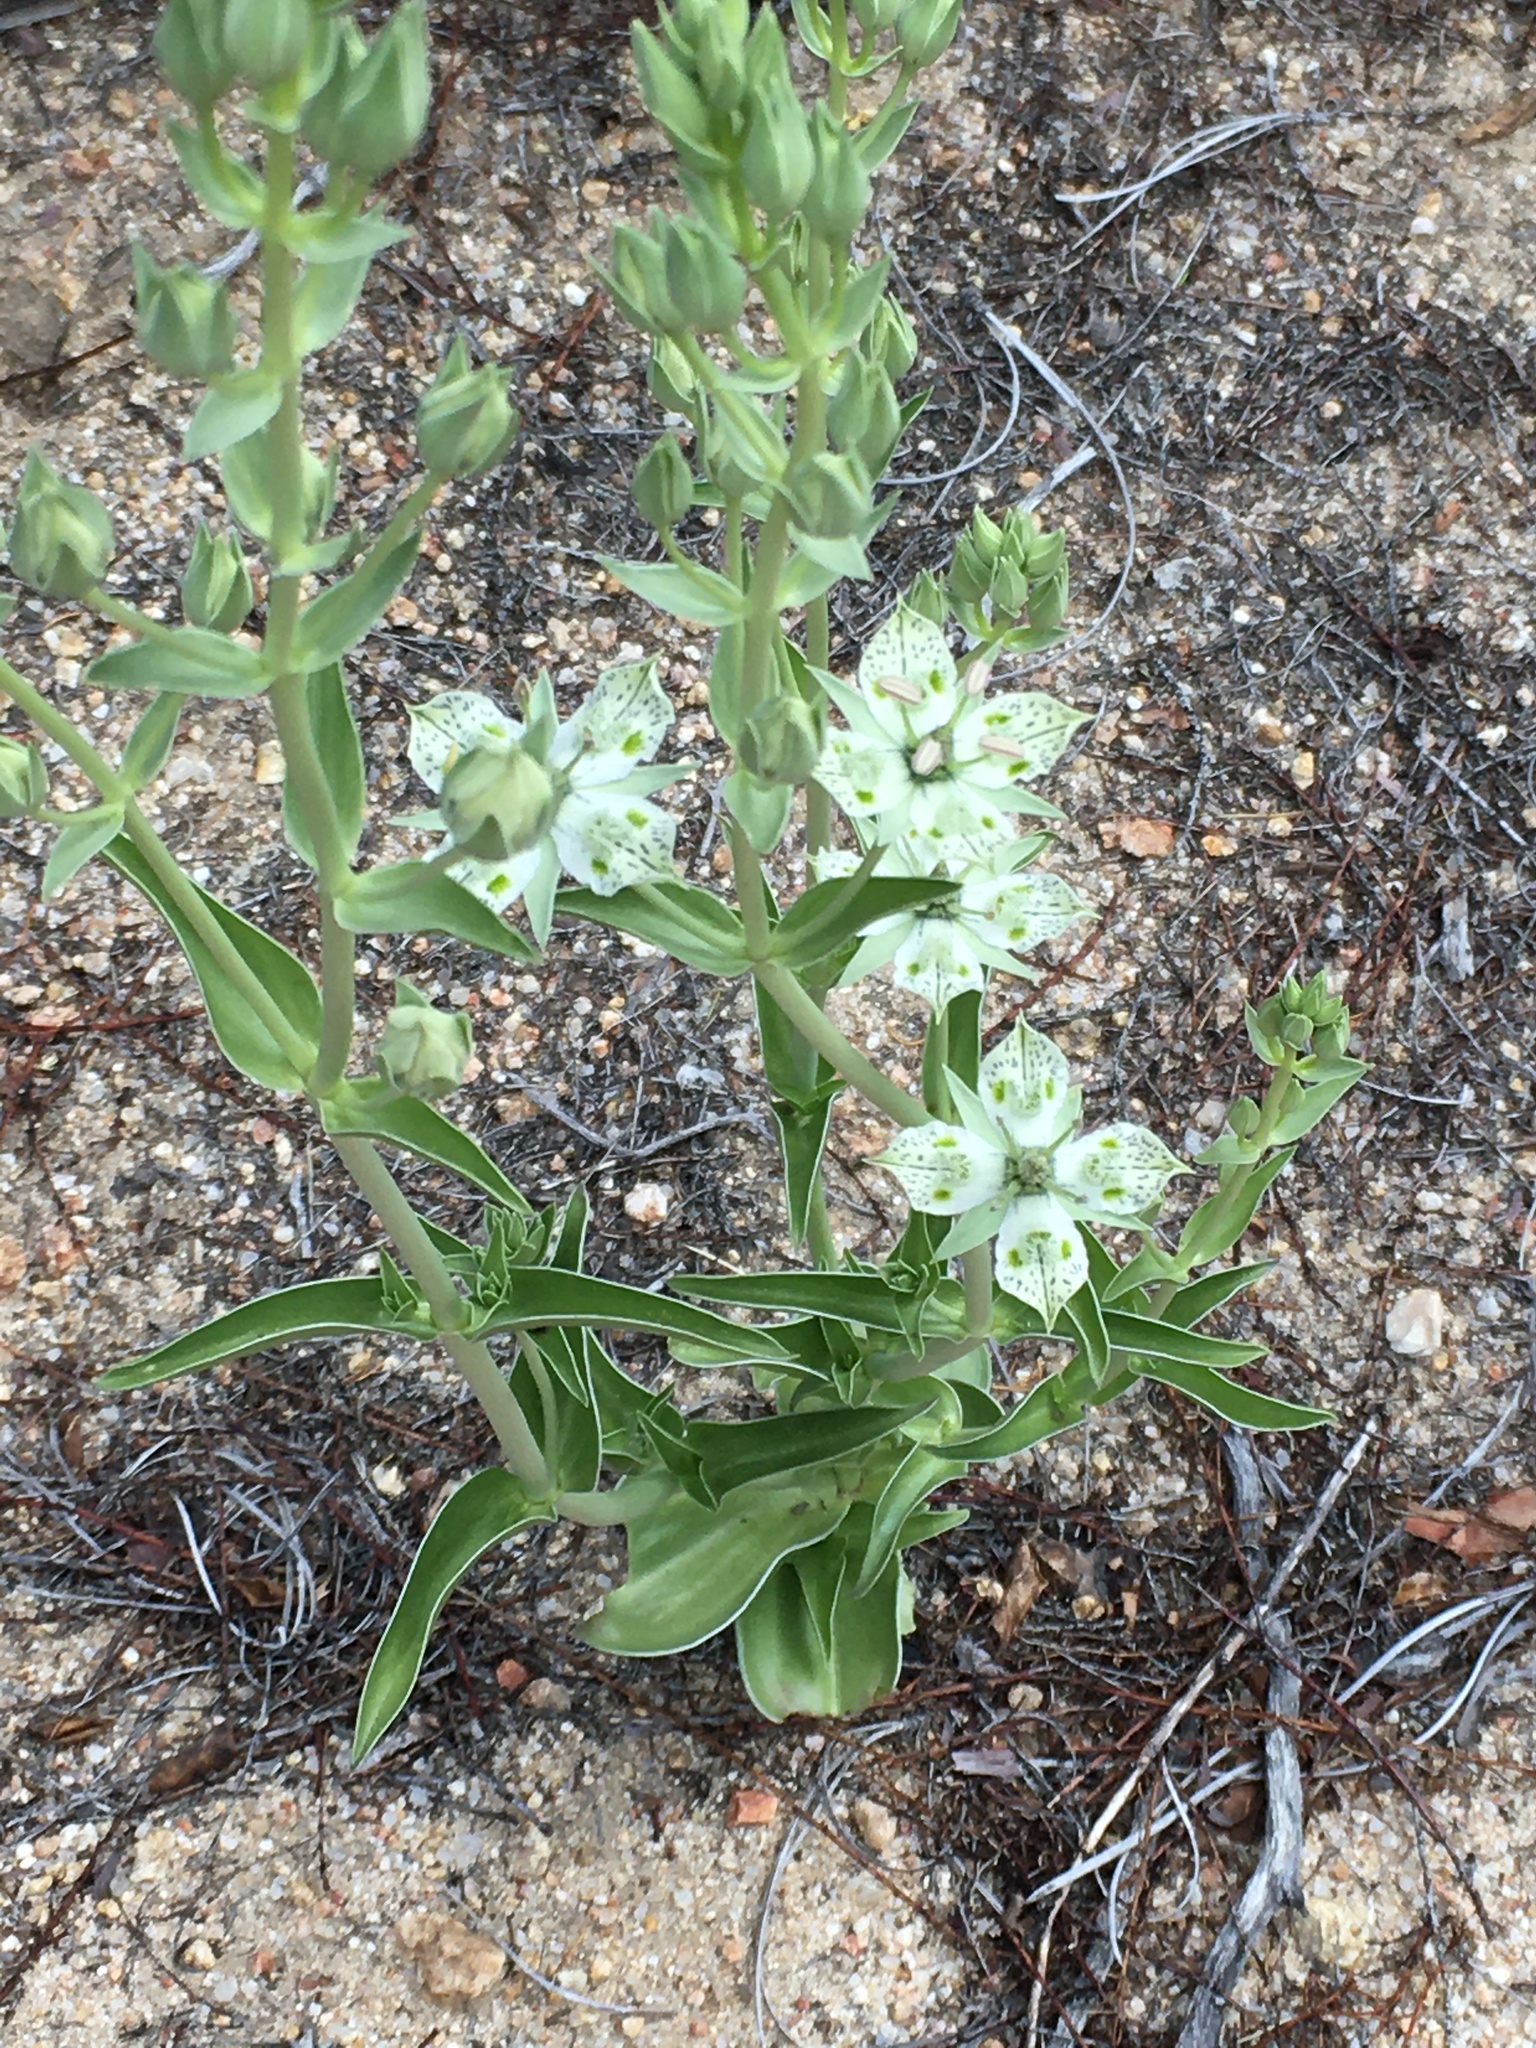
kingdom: Plantae
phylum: Tracheophyta
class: Magnoliopsida
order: Gentianales
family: Gentianaceae
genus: Frasera
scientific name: Frasera parryi
